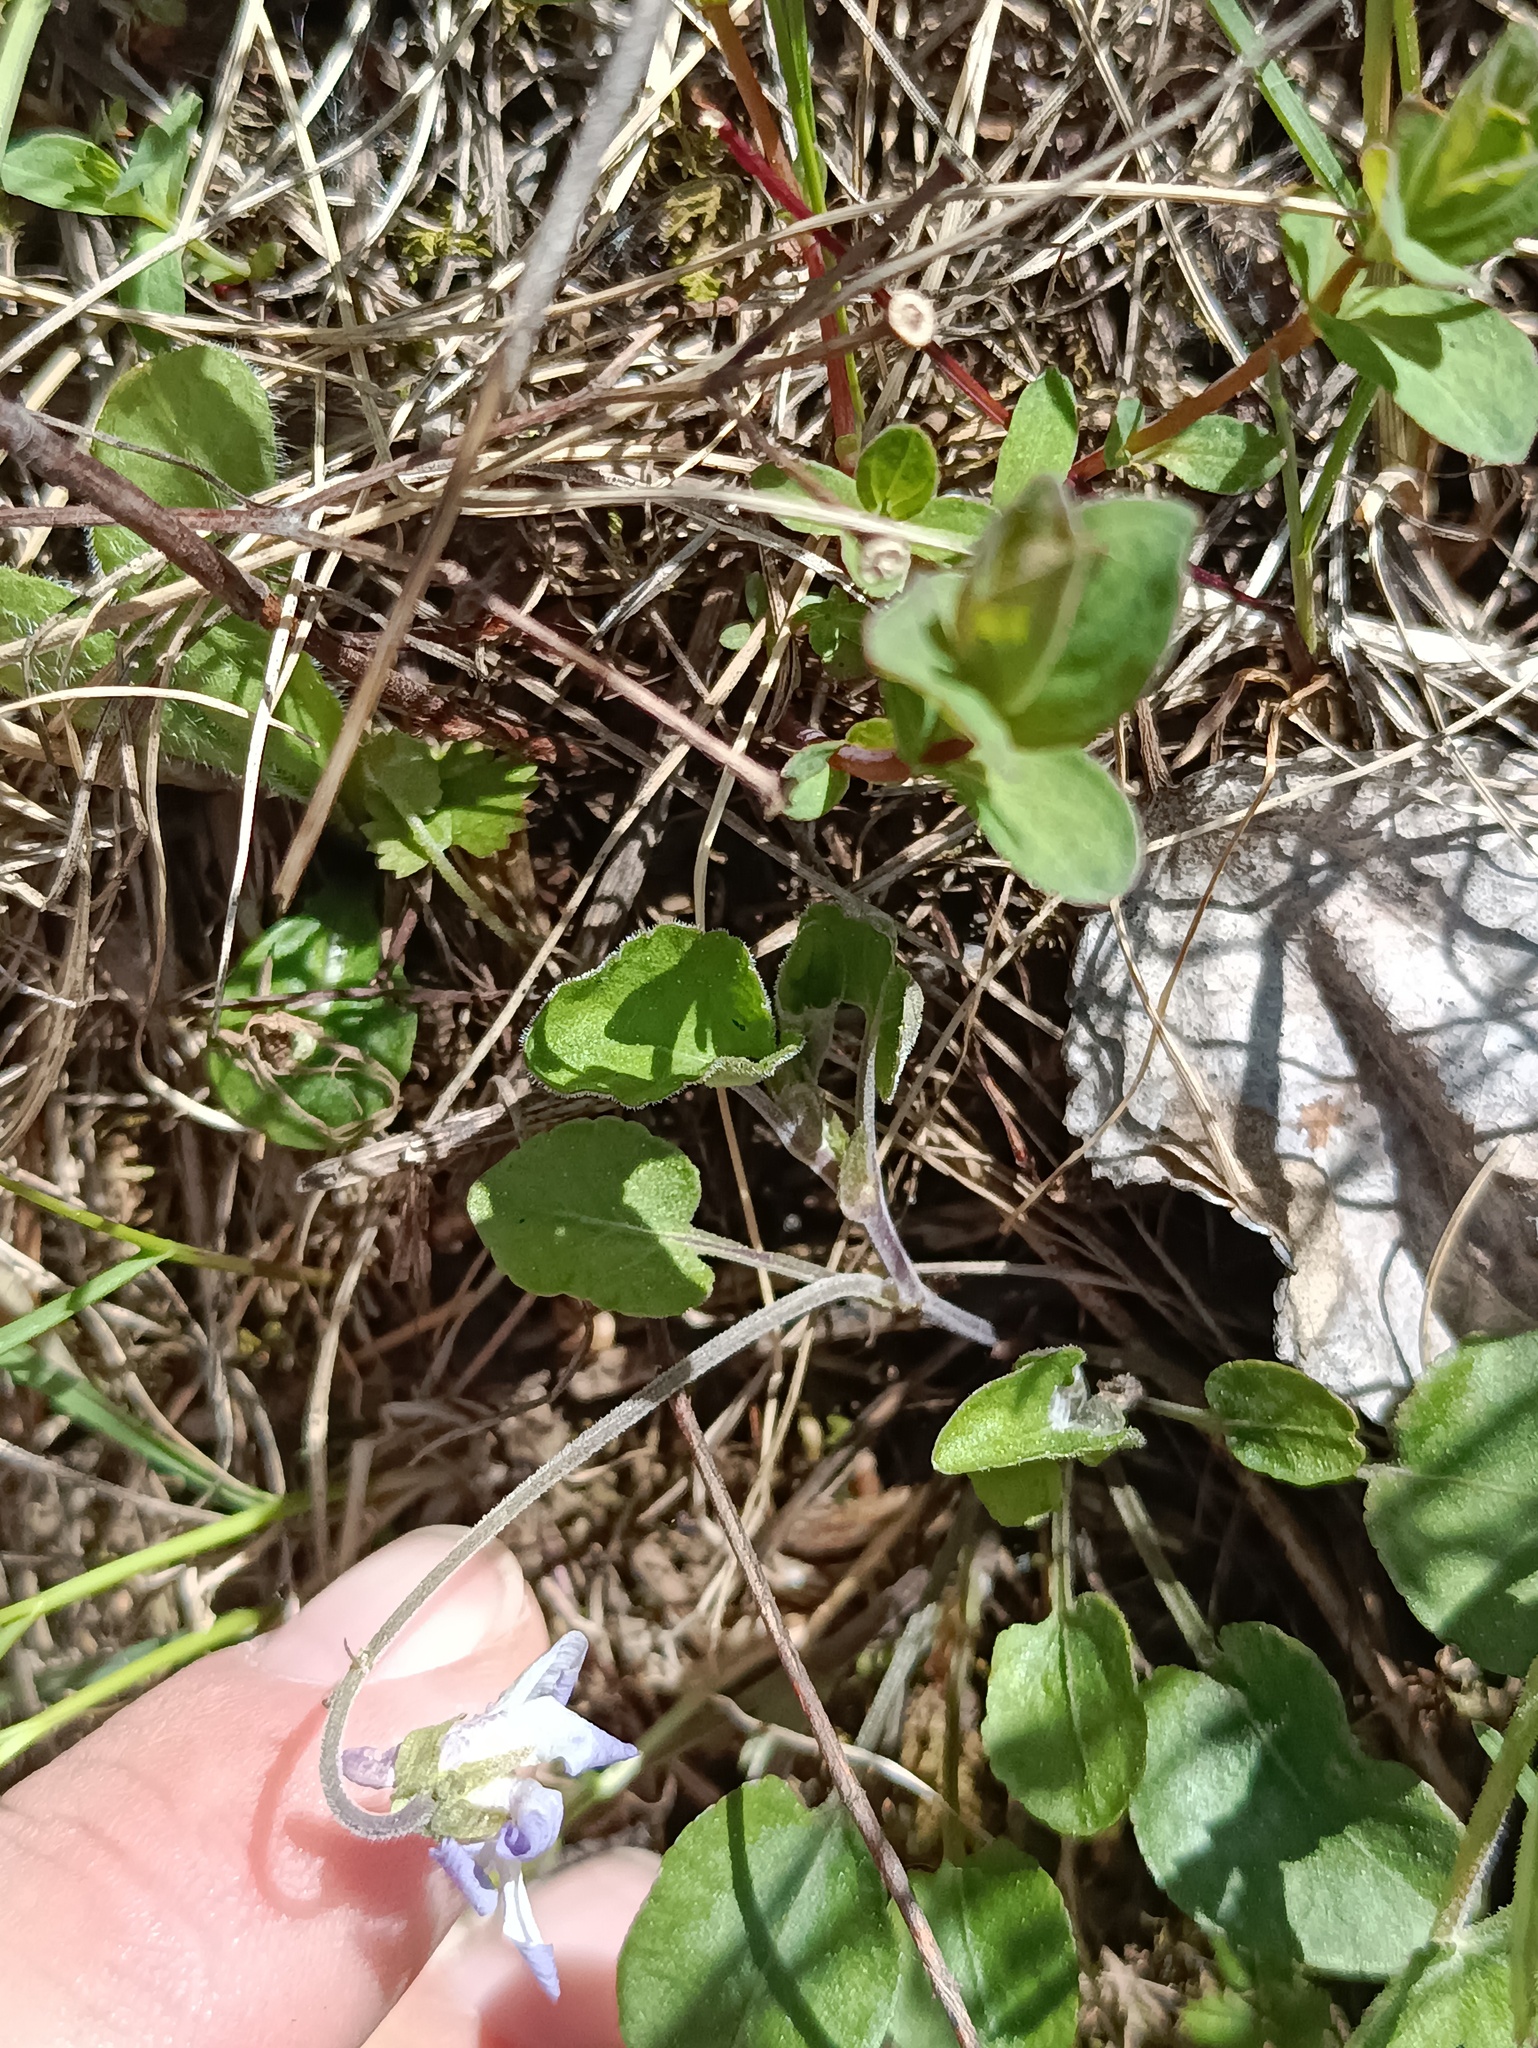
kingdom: Plantae
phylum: Tracheophyta
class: Magnoliopsida
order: Malpighiales
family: Violaceae
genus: Viola
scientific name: Viola rupestris
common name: Teesdale violet
